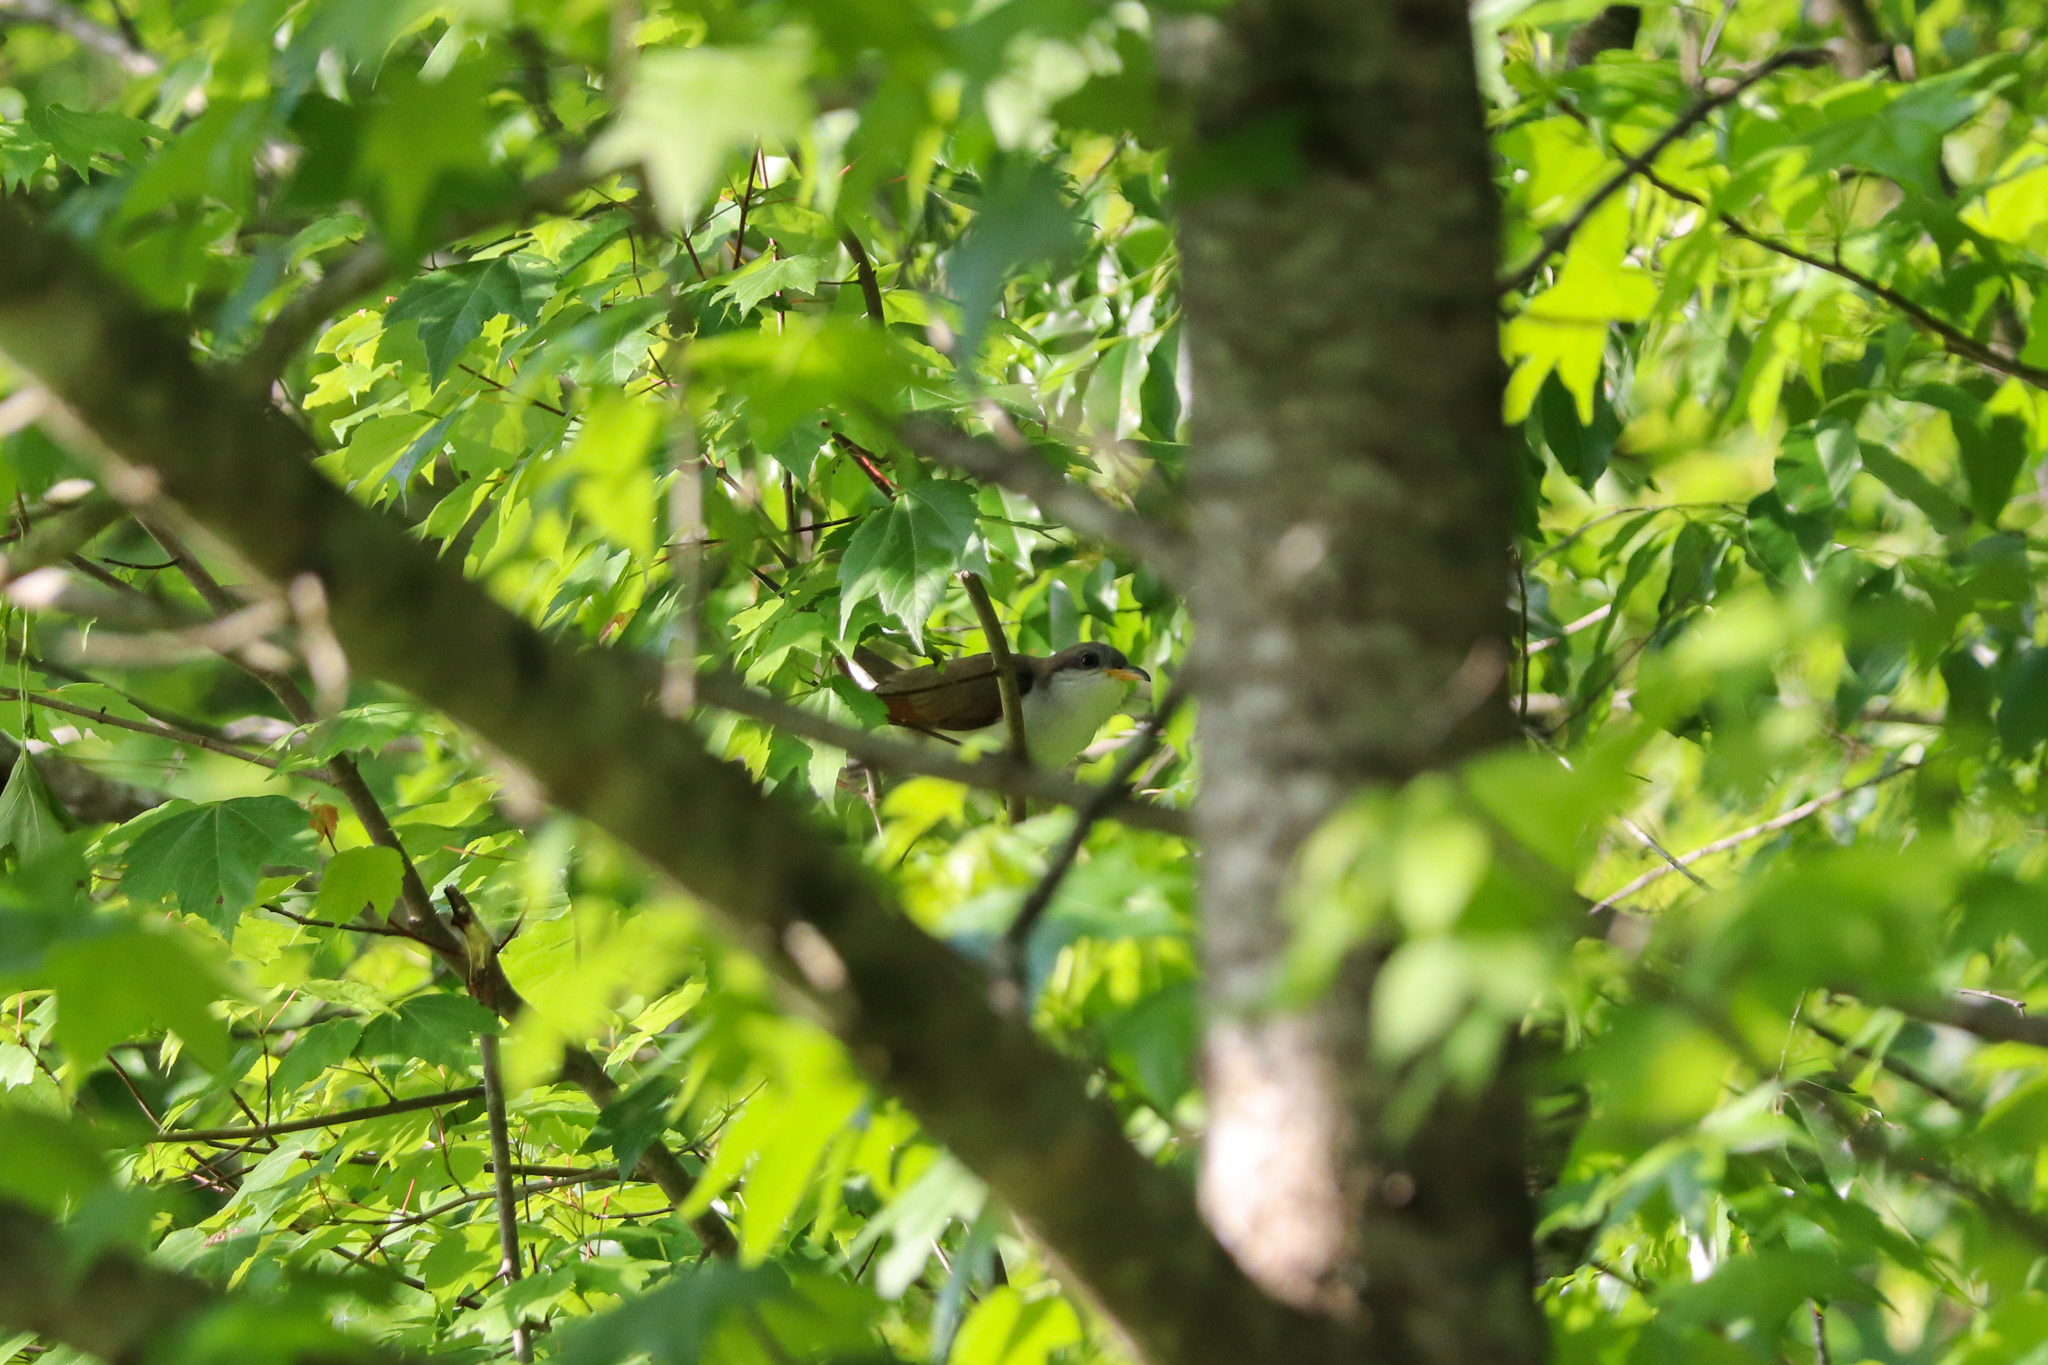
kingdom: Animalia
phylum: Chordata
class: Aves
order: Cuculiformes
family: Cuculidae
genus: Coccyzus
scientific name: Coccyzus americanus
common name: Yellow-billed cuckoo
